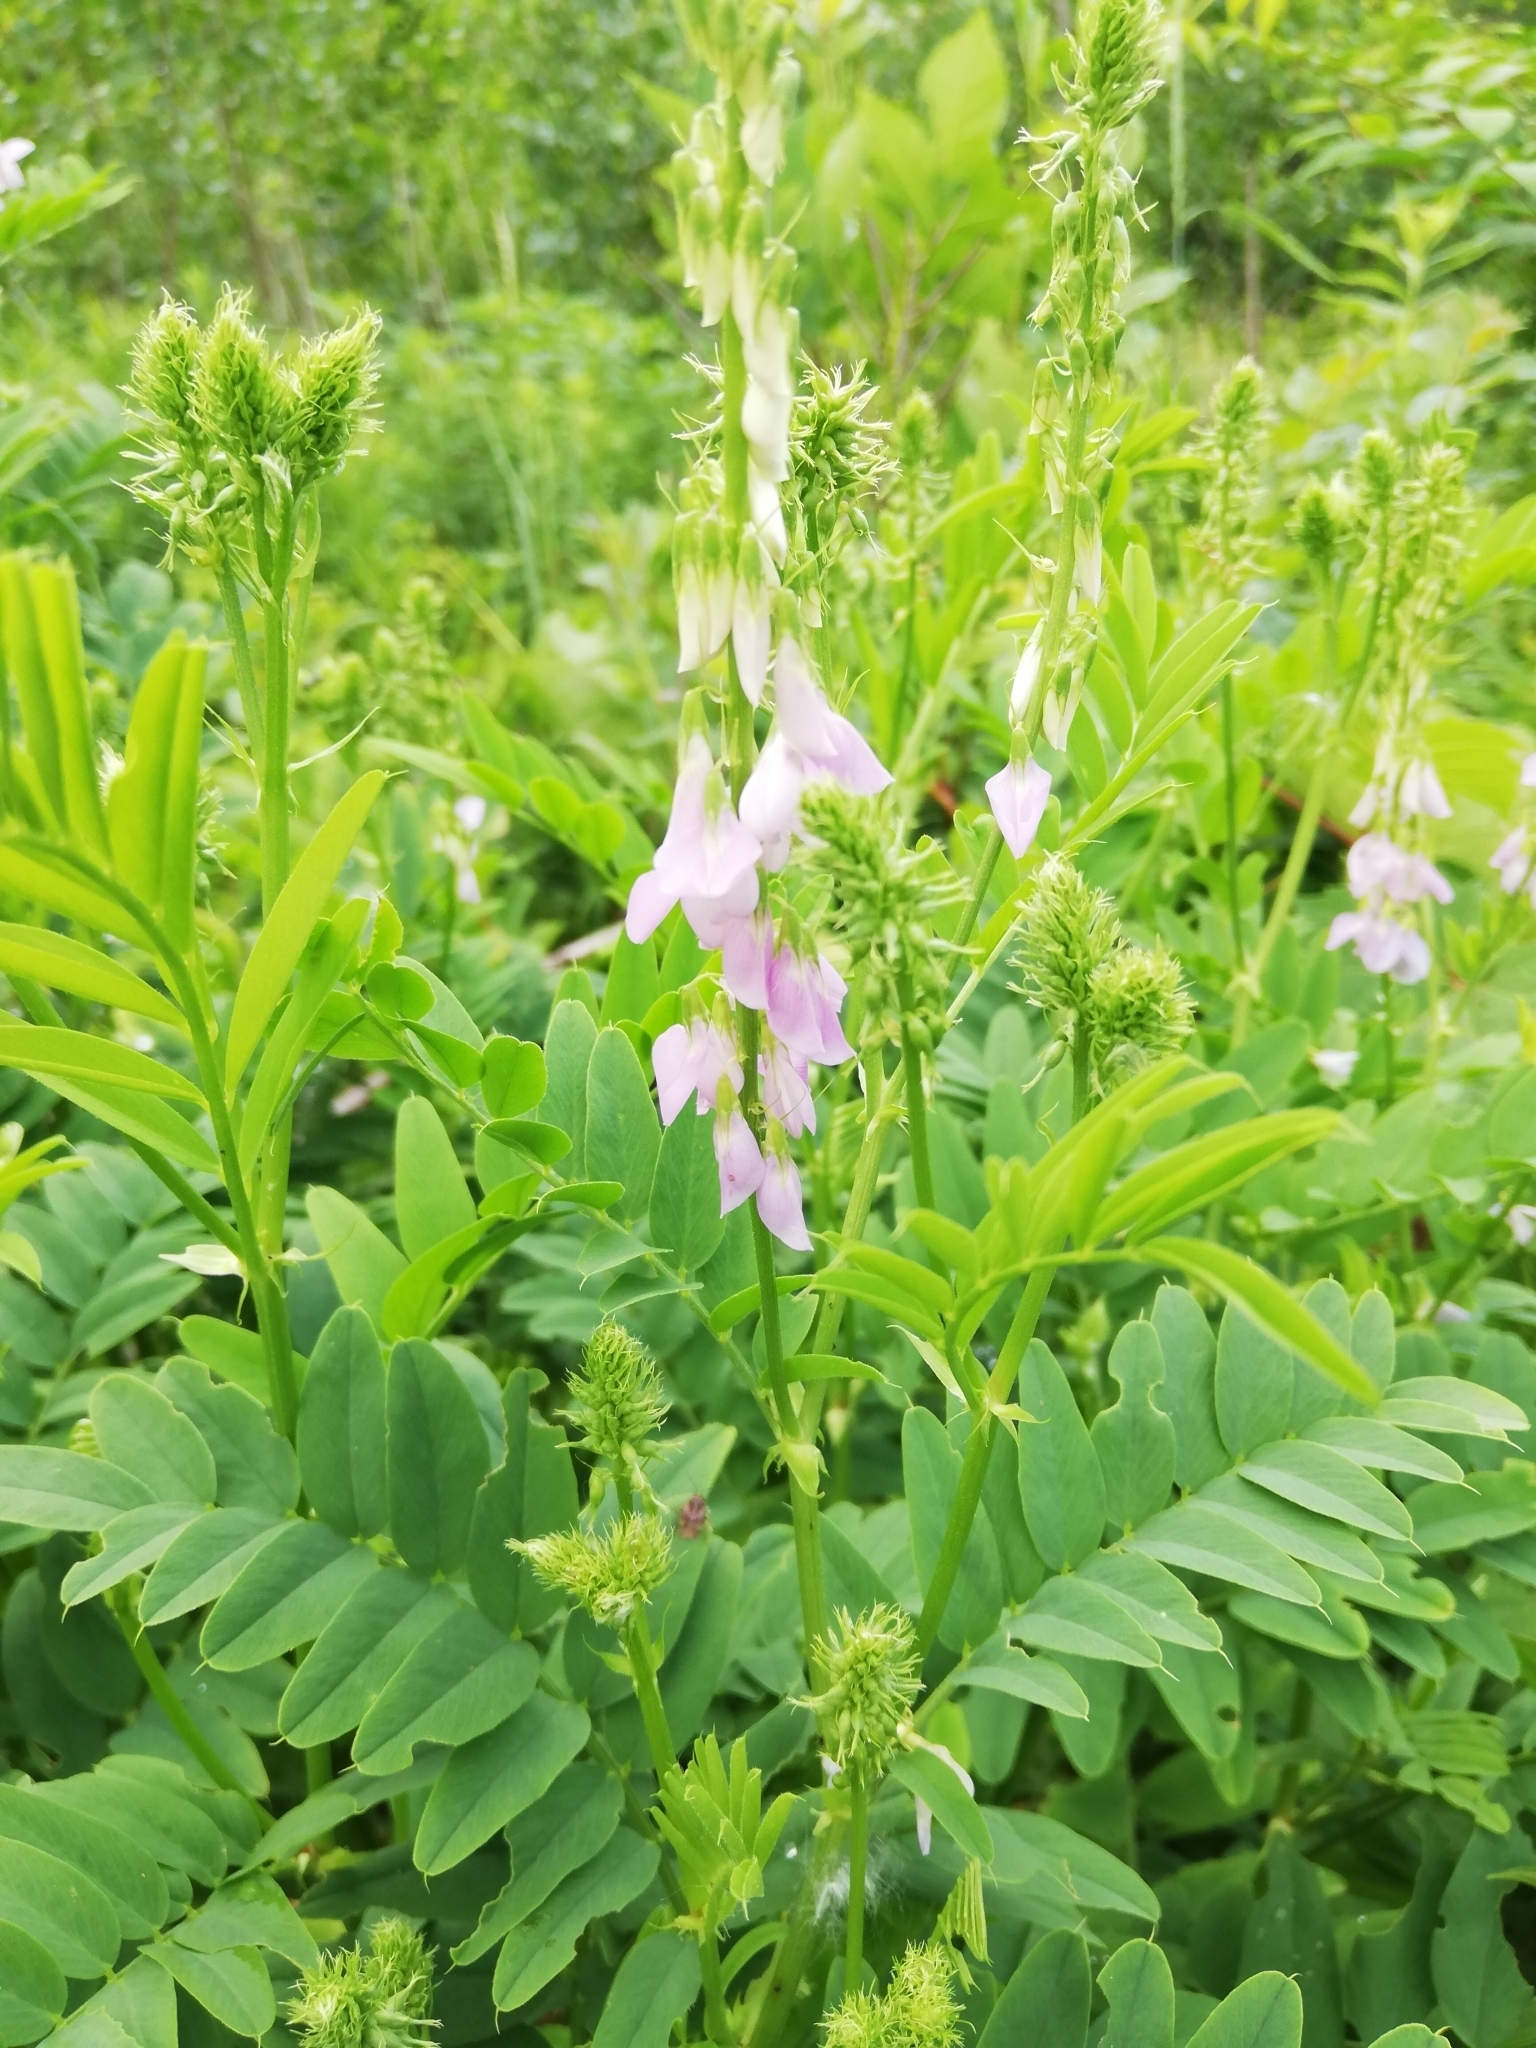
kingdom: Plantae
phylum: Tracheophyta
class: Magnoliopsida
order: Fabales
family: Fabaceae
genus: Galega
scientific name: Galega officinalis
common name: Goat's-rue
